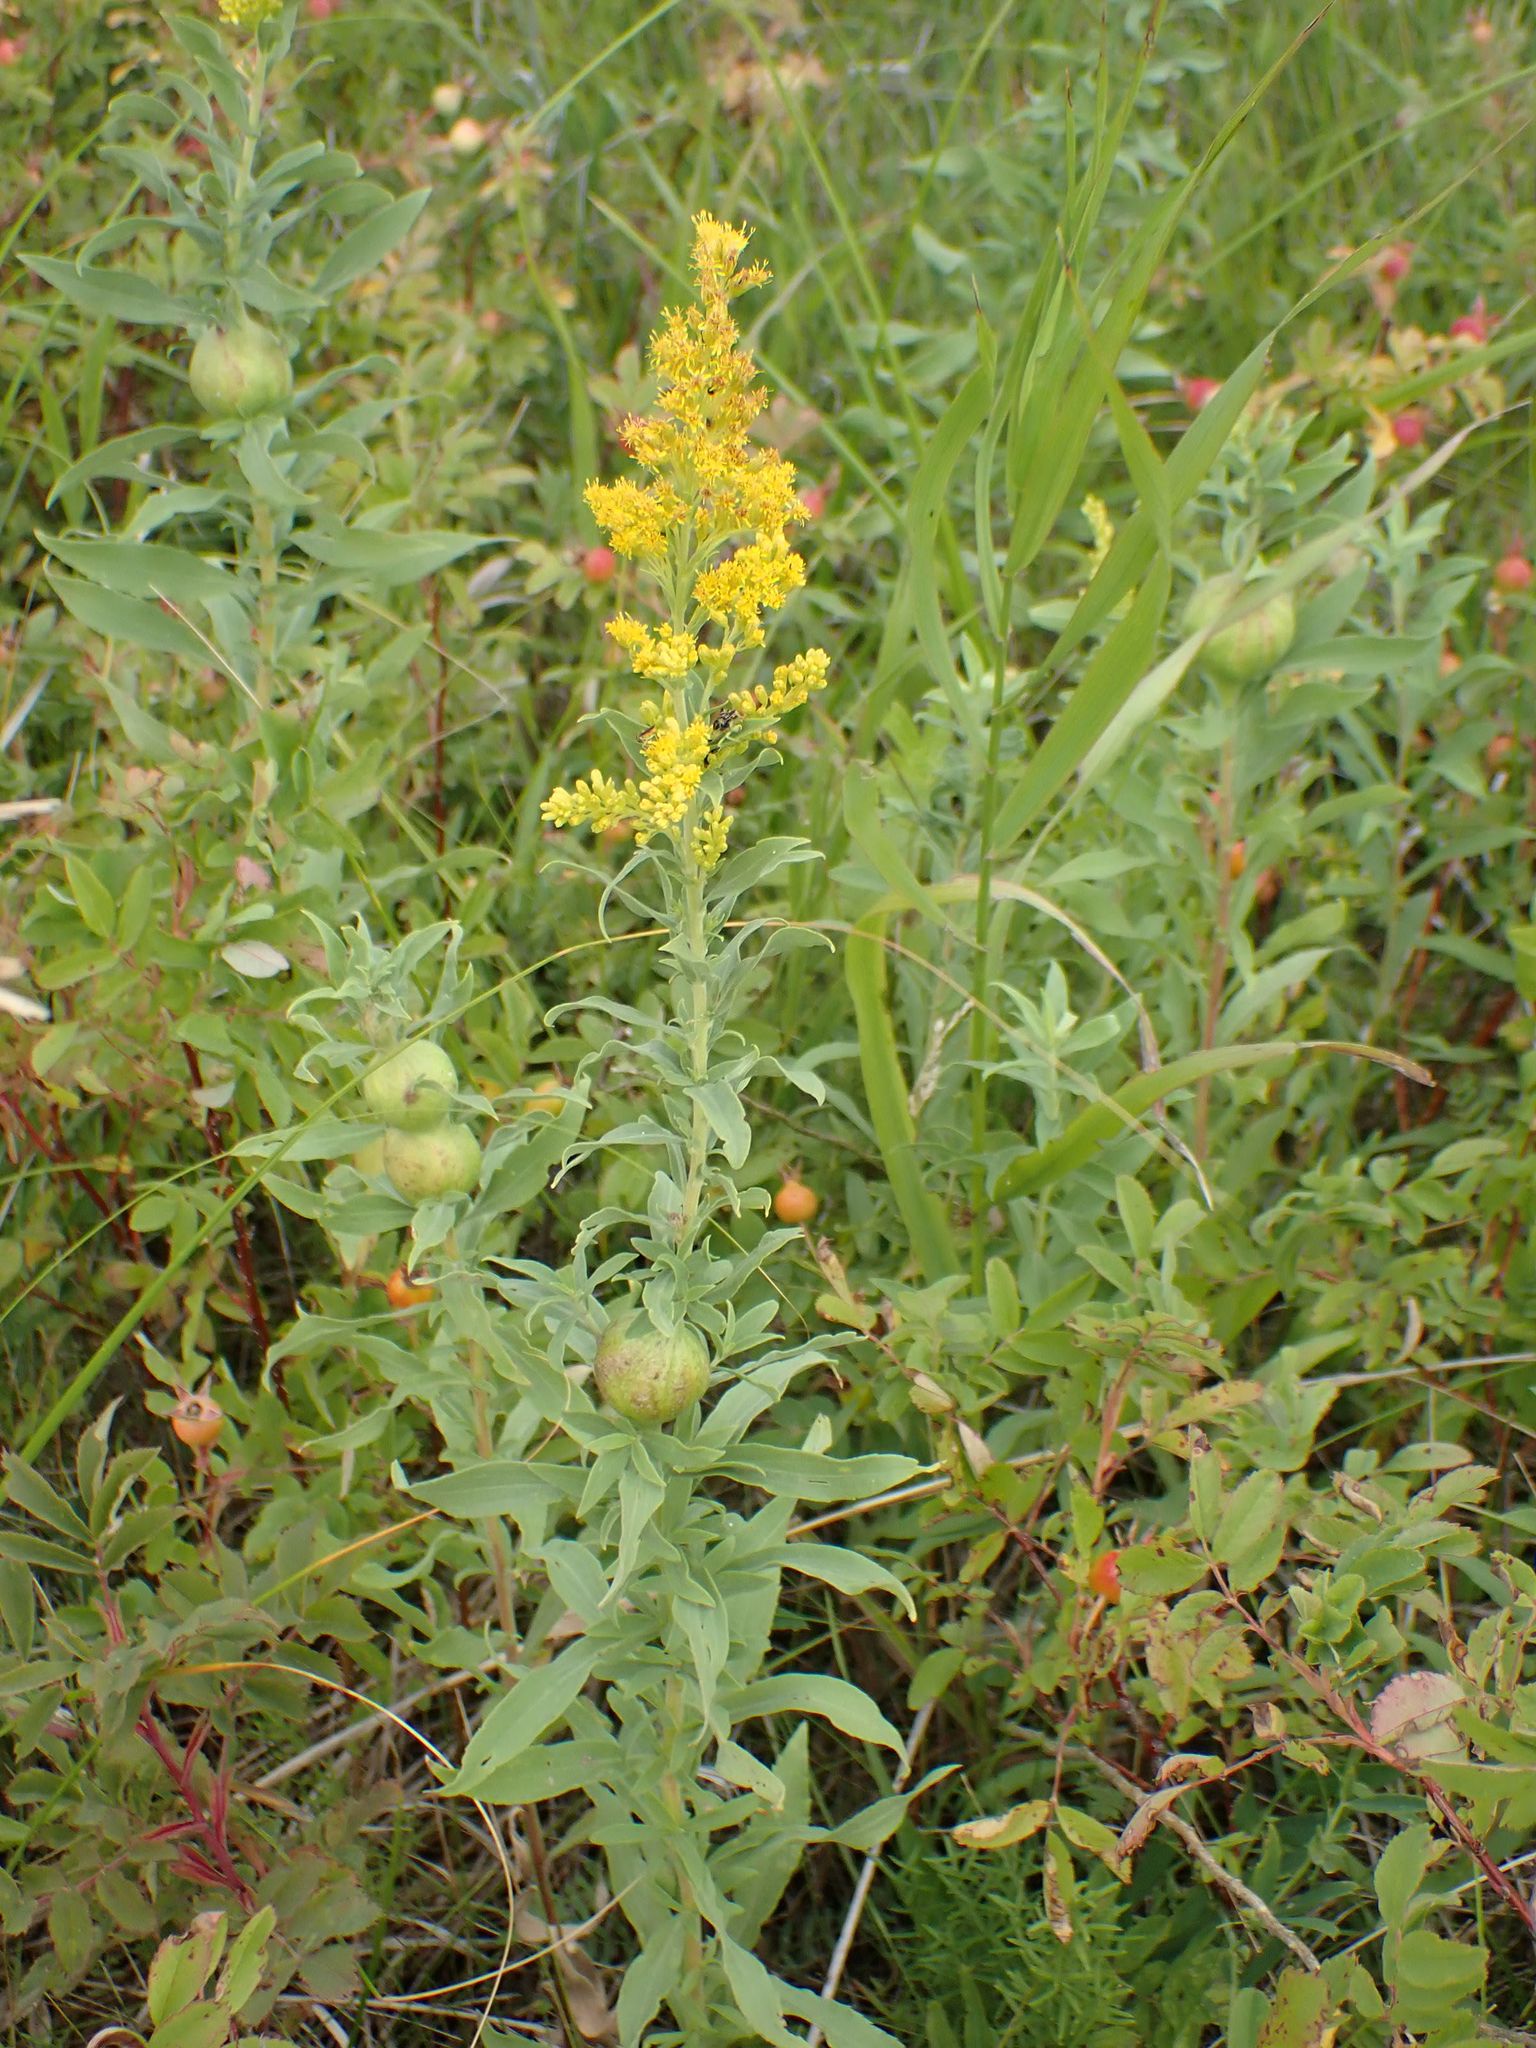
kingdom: Plantae
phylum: Tracheophyta
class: Magnoliopsida
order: Asterales
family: Asteraceae
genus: Solidago
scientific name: Solidago altissima
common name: Late goldenrod
